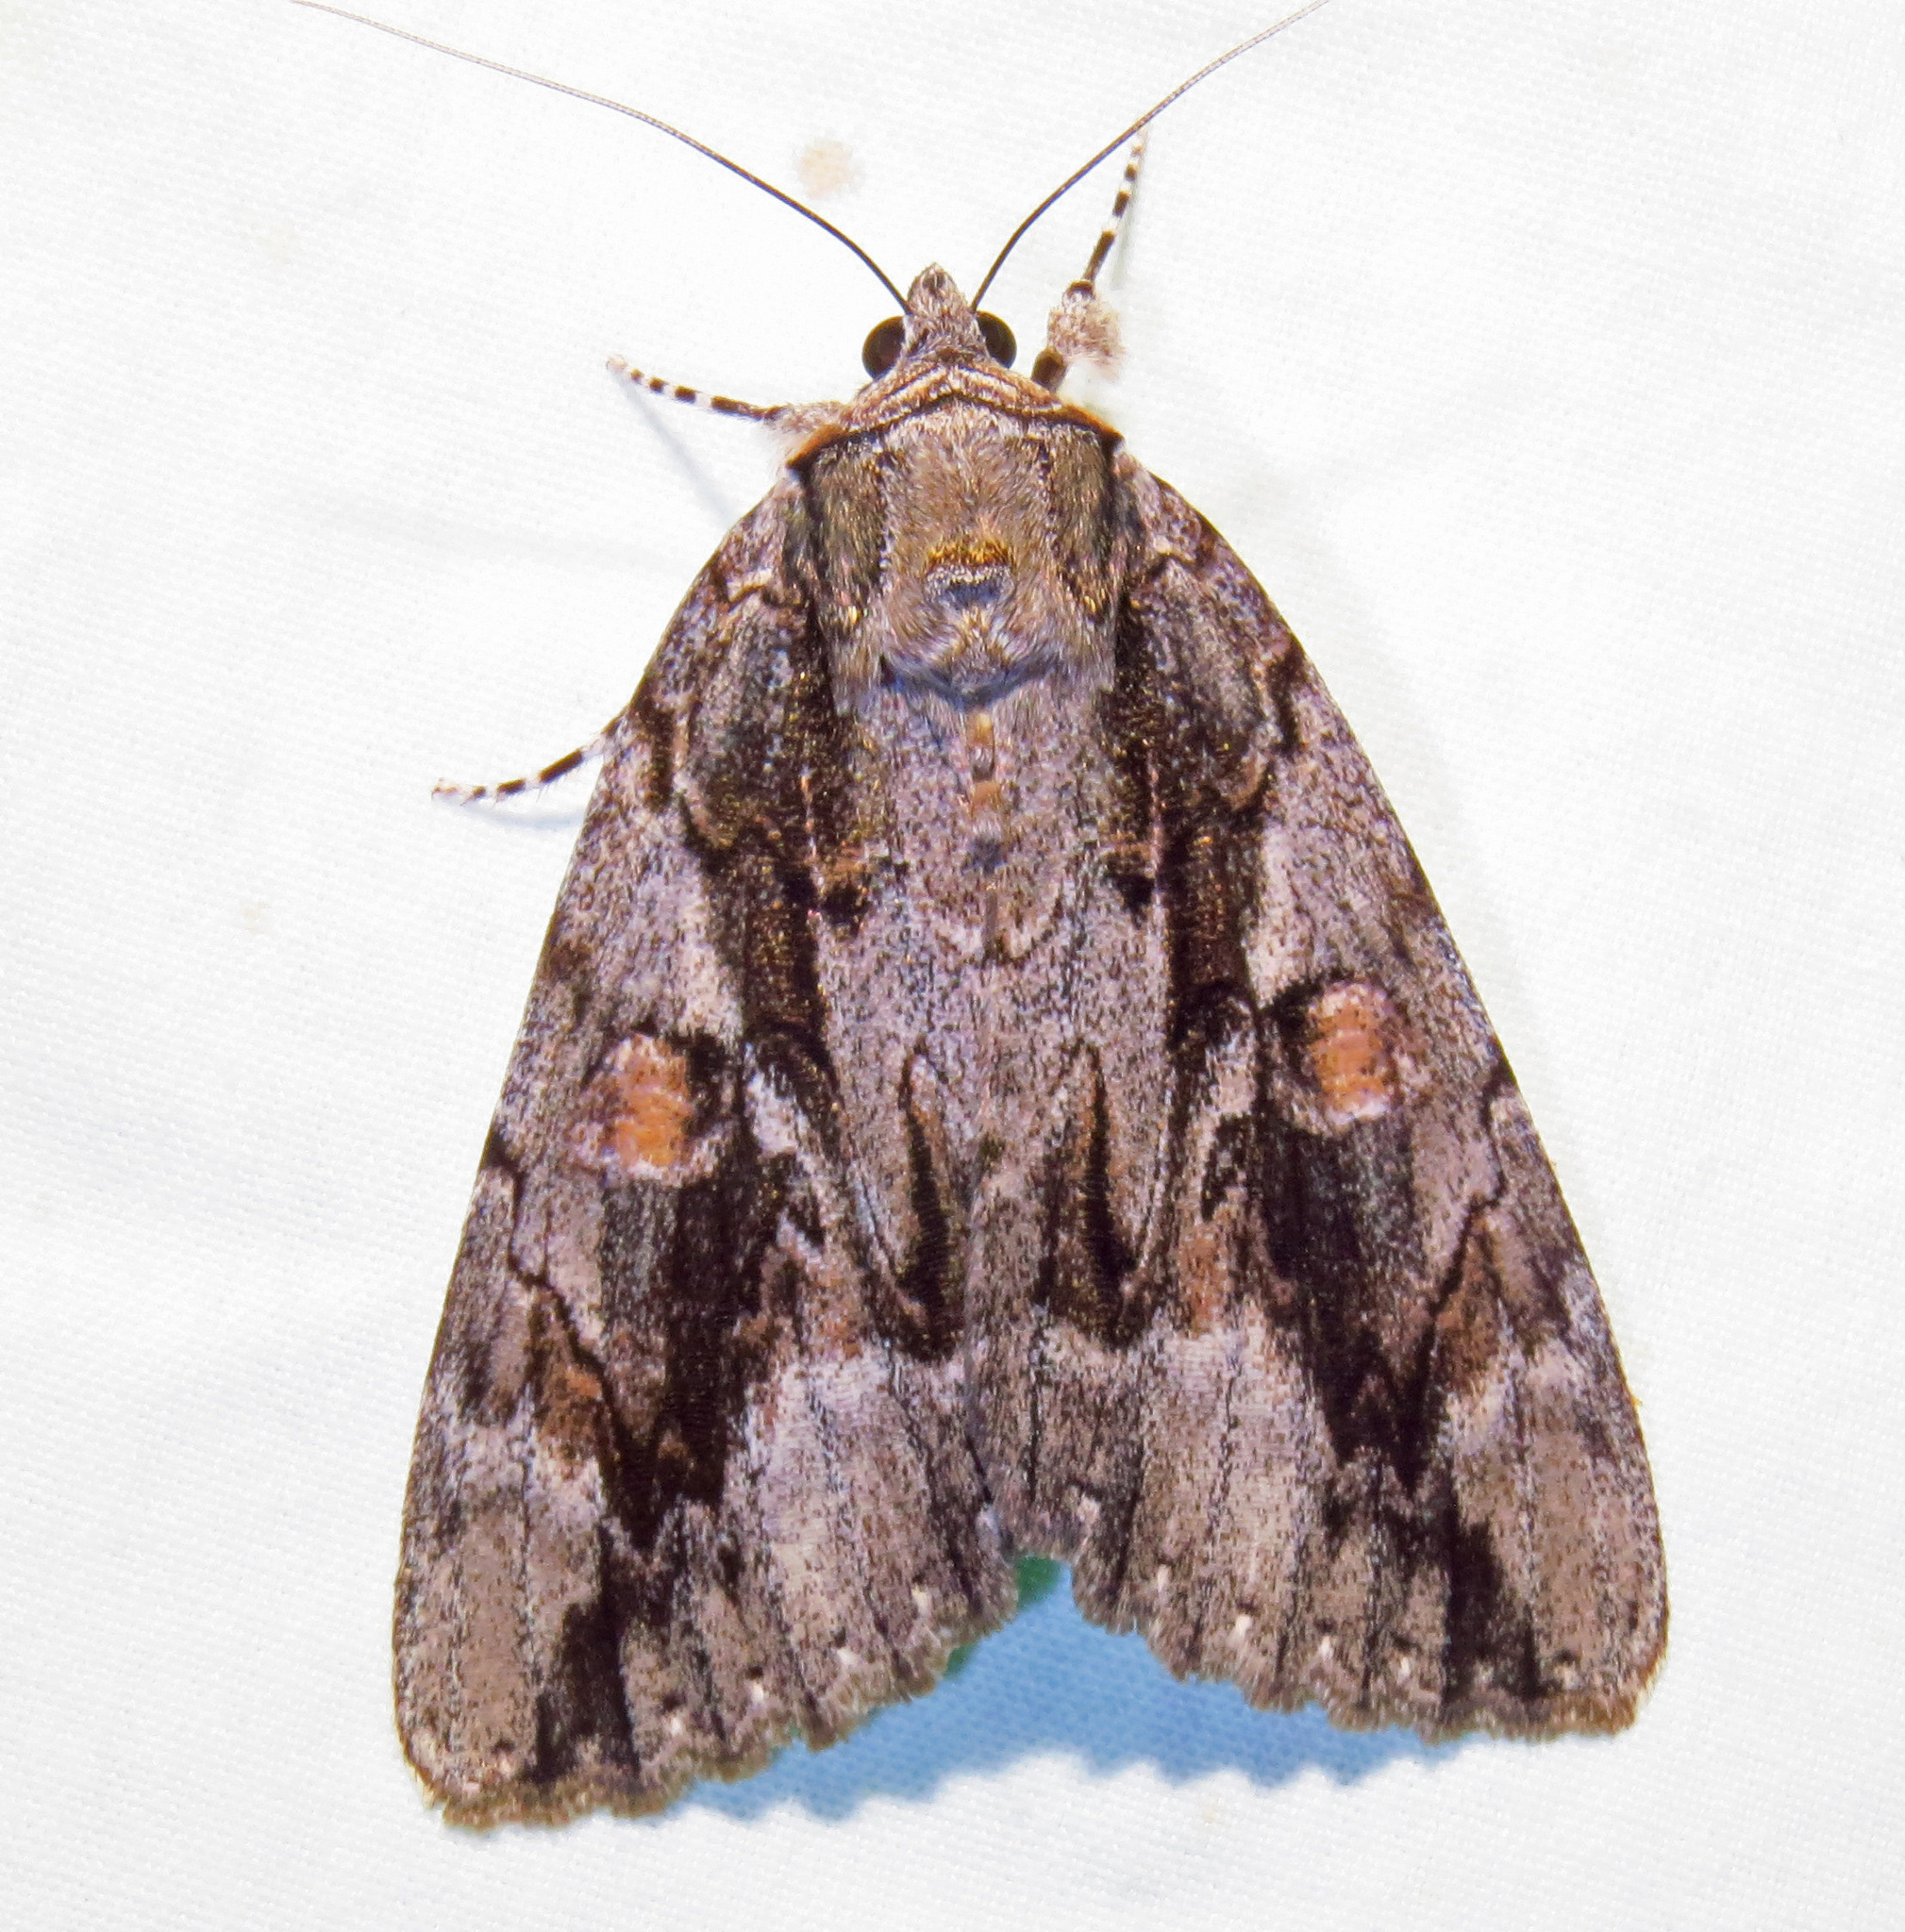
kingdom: Animalia
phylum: Arthropoda
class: Insecta
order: Lepidoptera
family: Erebidae
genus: Catocala
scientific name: Catocala flebilis
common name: Mournful underwing
